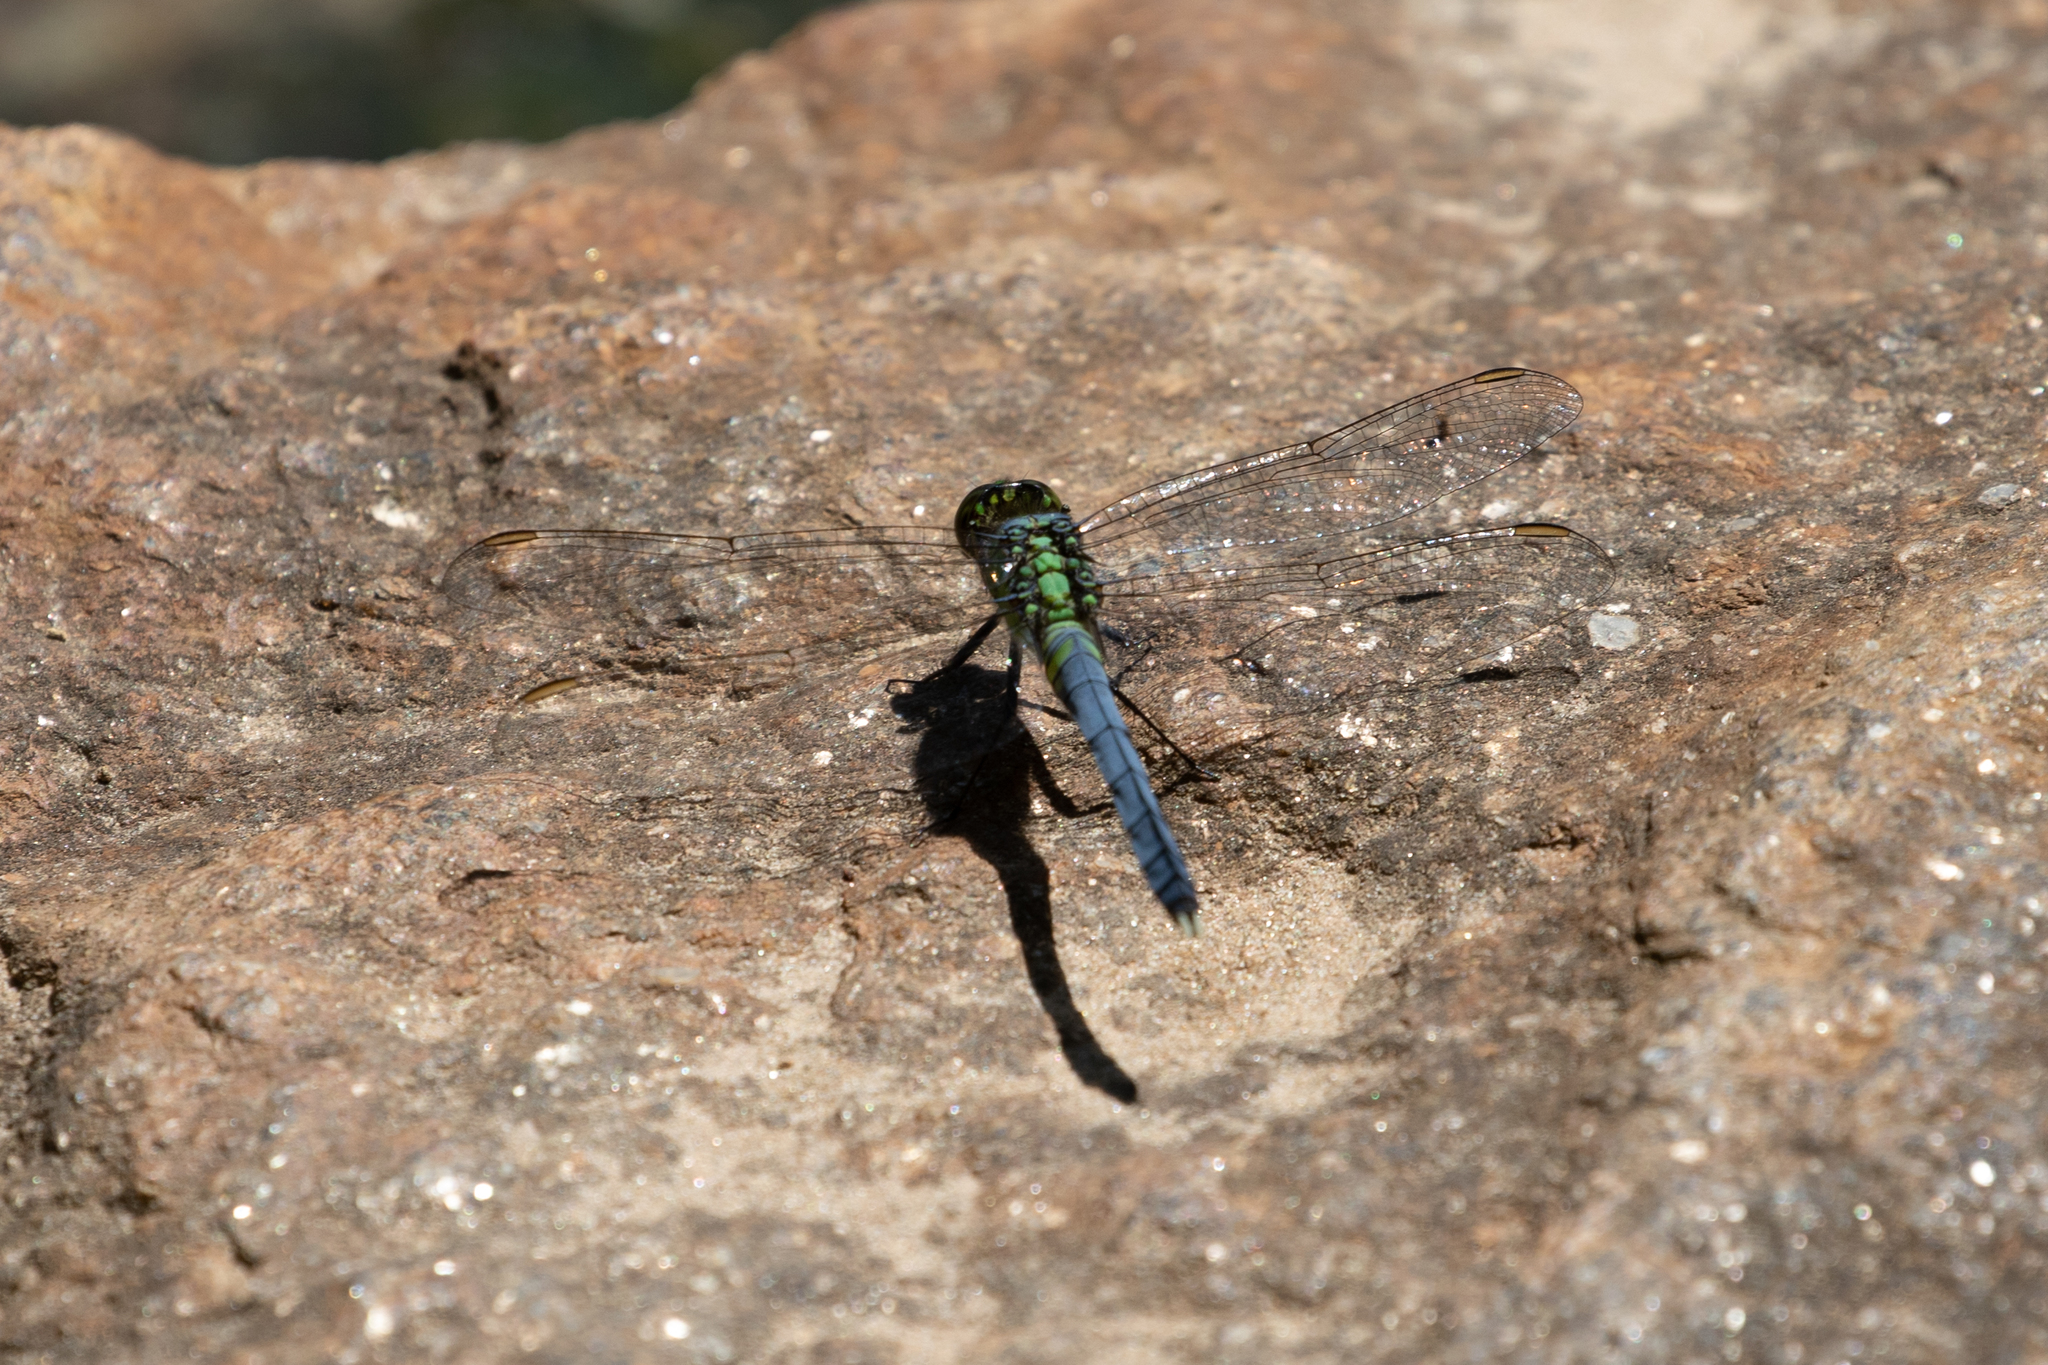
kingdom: Animalia
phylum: Arthropoda
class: Insecta
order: Odonata
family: Libellulidae
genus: Erythemis
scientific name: Erythemis simplicicollis
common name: Eastern pondhawk
